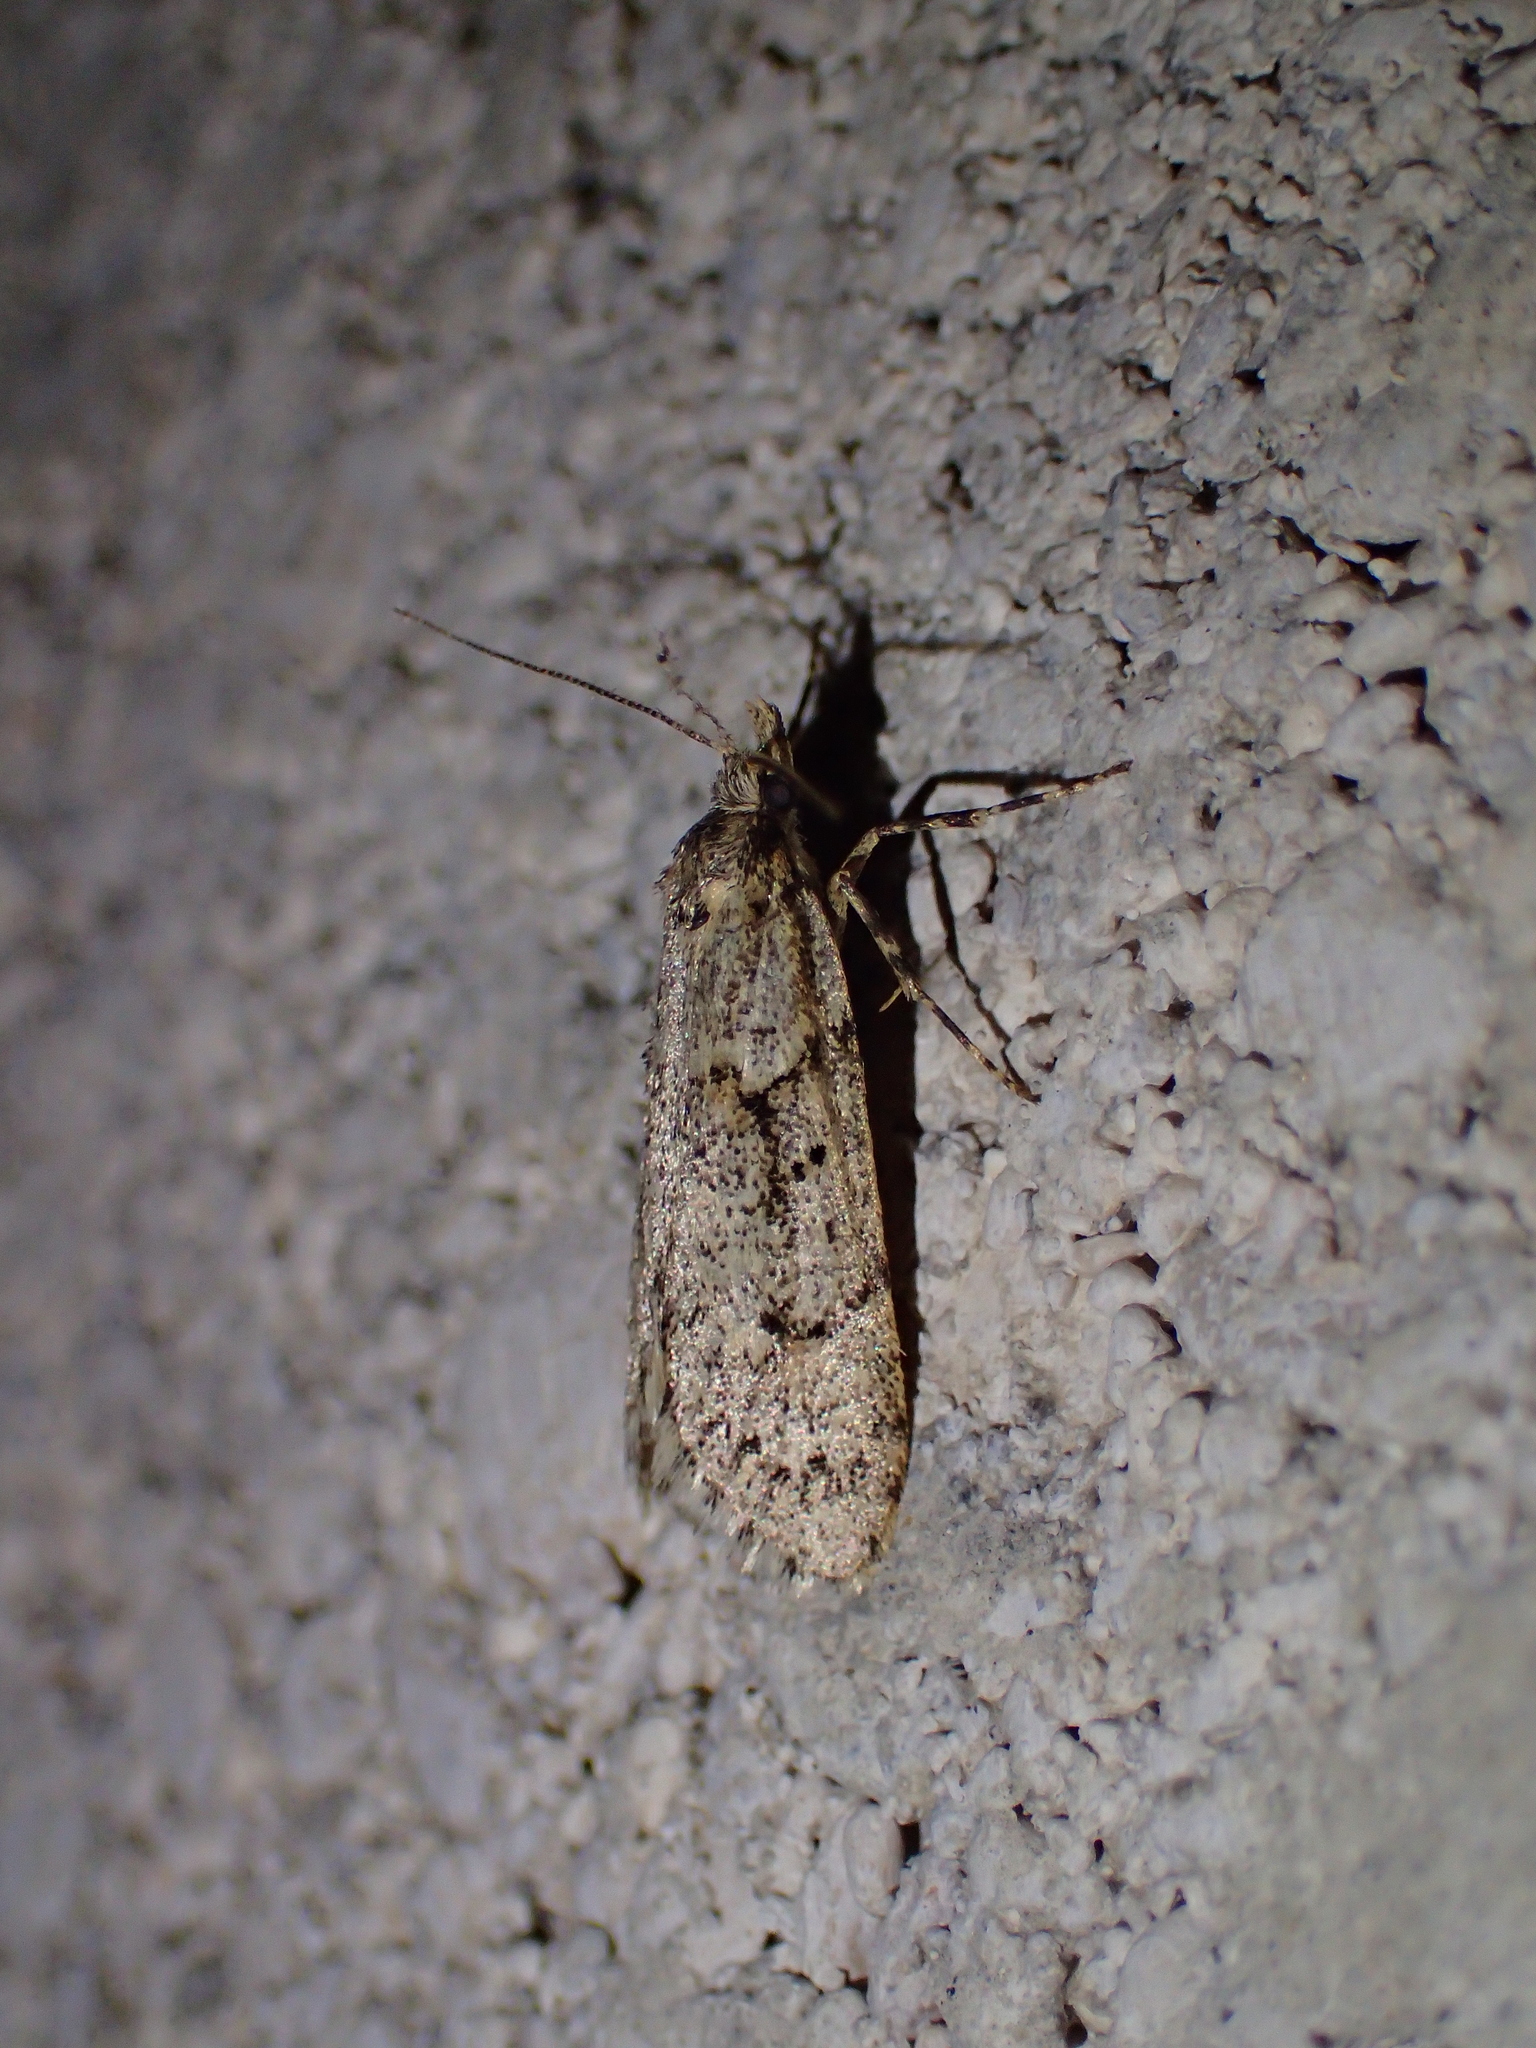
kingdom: Animalia
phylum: Arthropoda
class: Insecta
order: Lepidoptera
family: Lypusidae
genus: Diurnea
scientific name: Diurnea fagella
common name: March tubic
